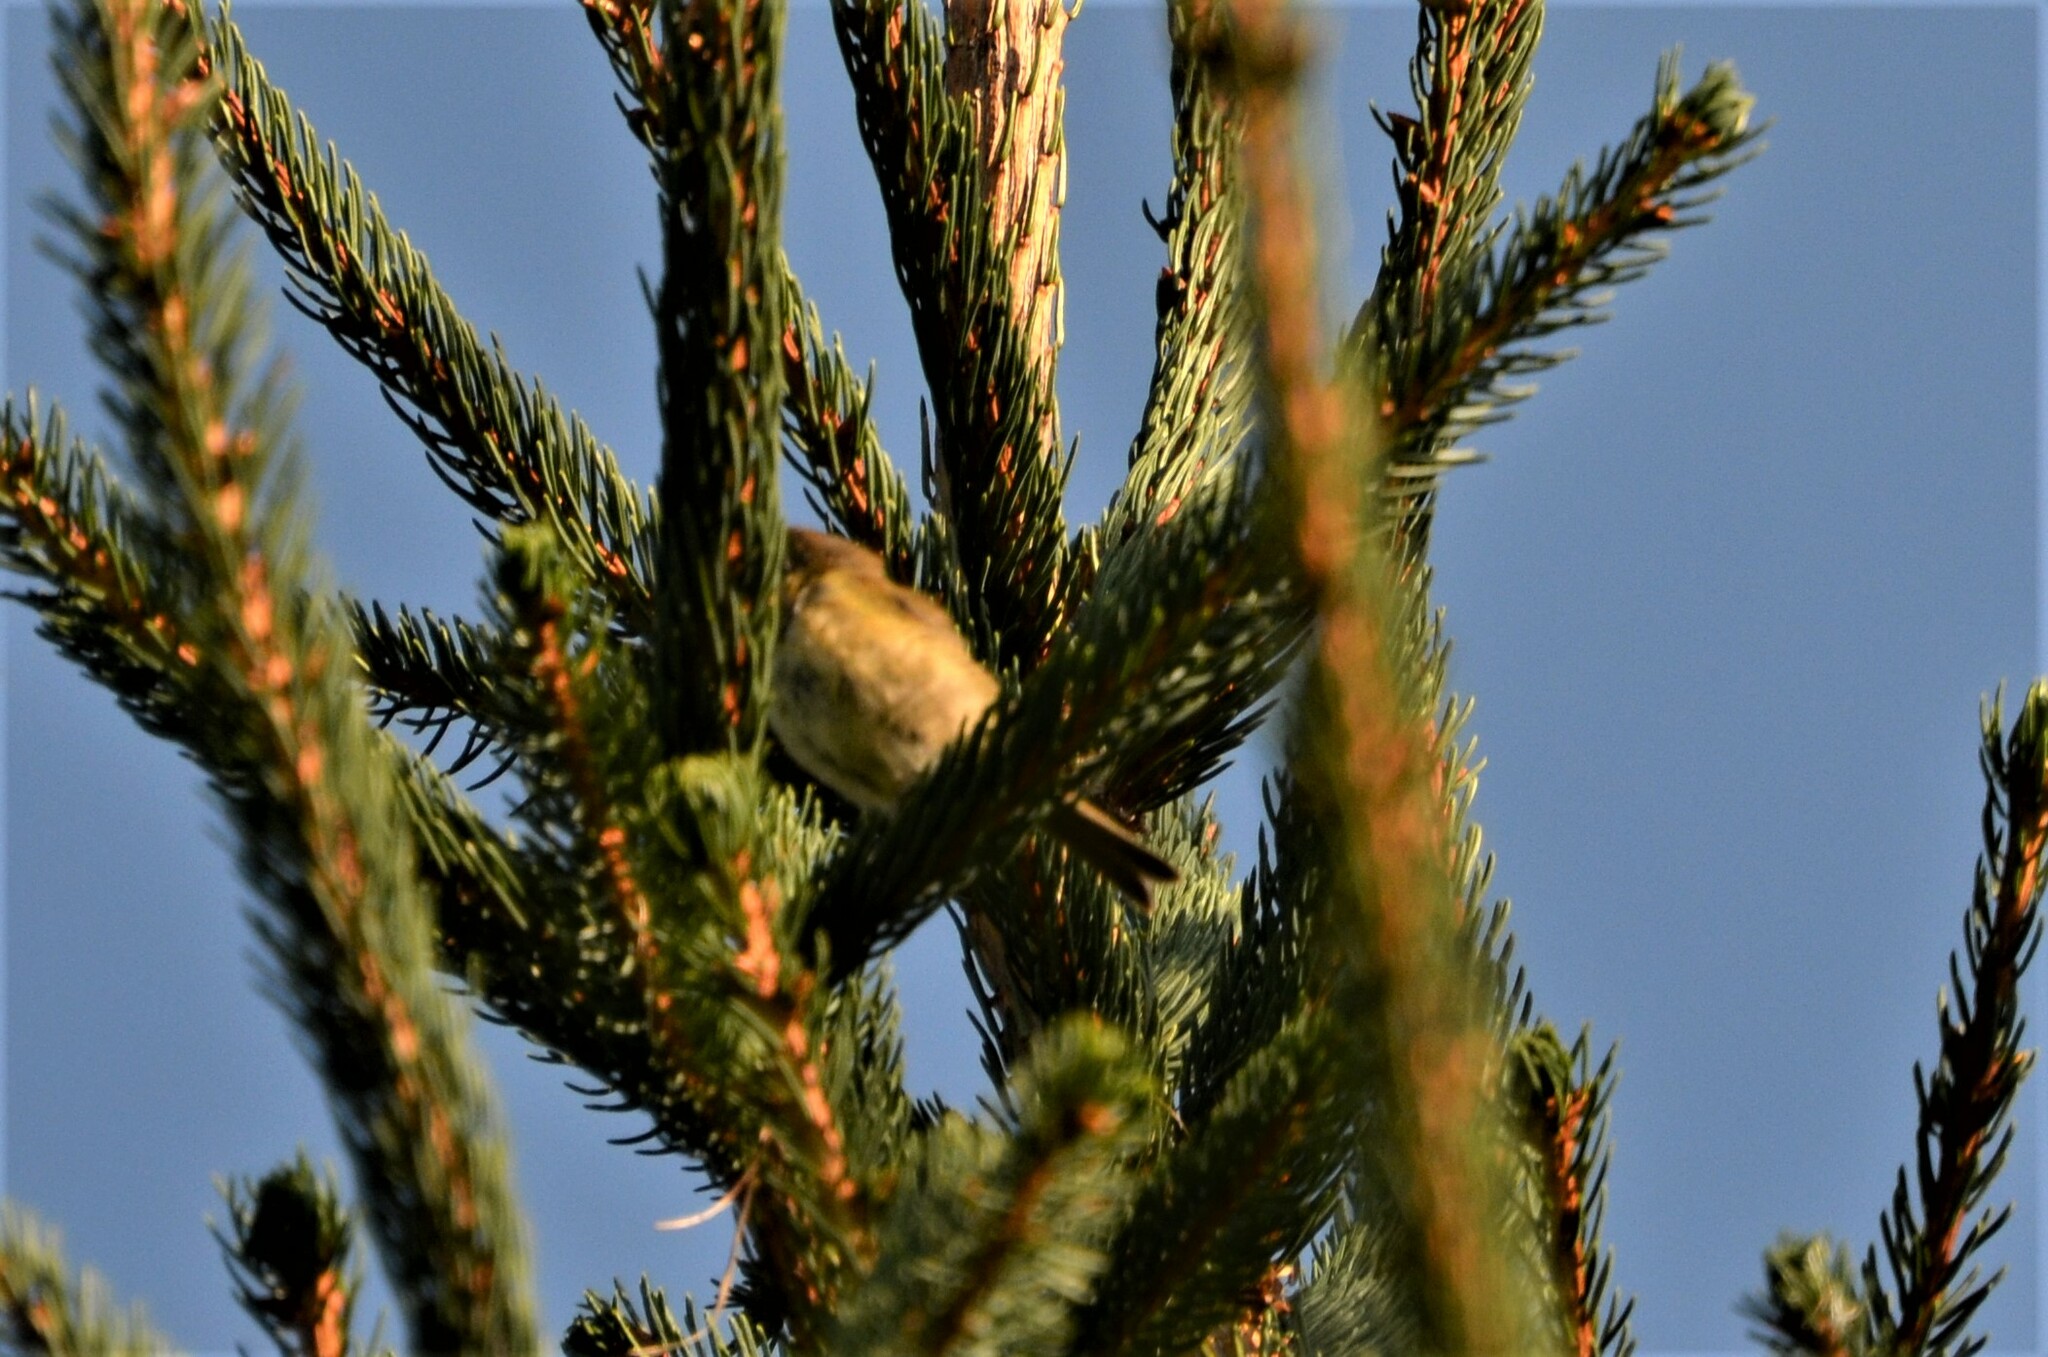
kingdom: Animalia
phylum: Chordata
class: Aves
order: Passeriformes
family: Phylloscopidae
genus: Phylloscopus
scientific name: Phylloscopus collybita
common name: Common chiffchaff
